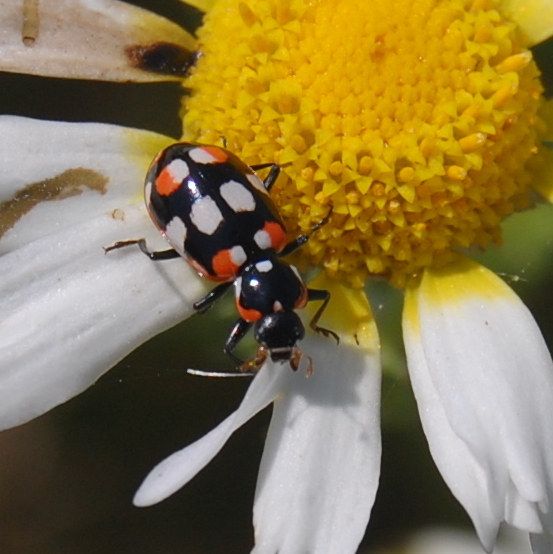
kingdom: Animalia
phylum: Arthropoda
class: Insecta
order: Coleoptera
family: Coccinellidae
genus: Eriopis
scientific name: Eriopis connexa
